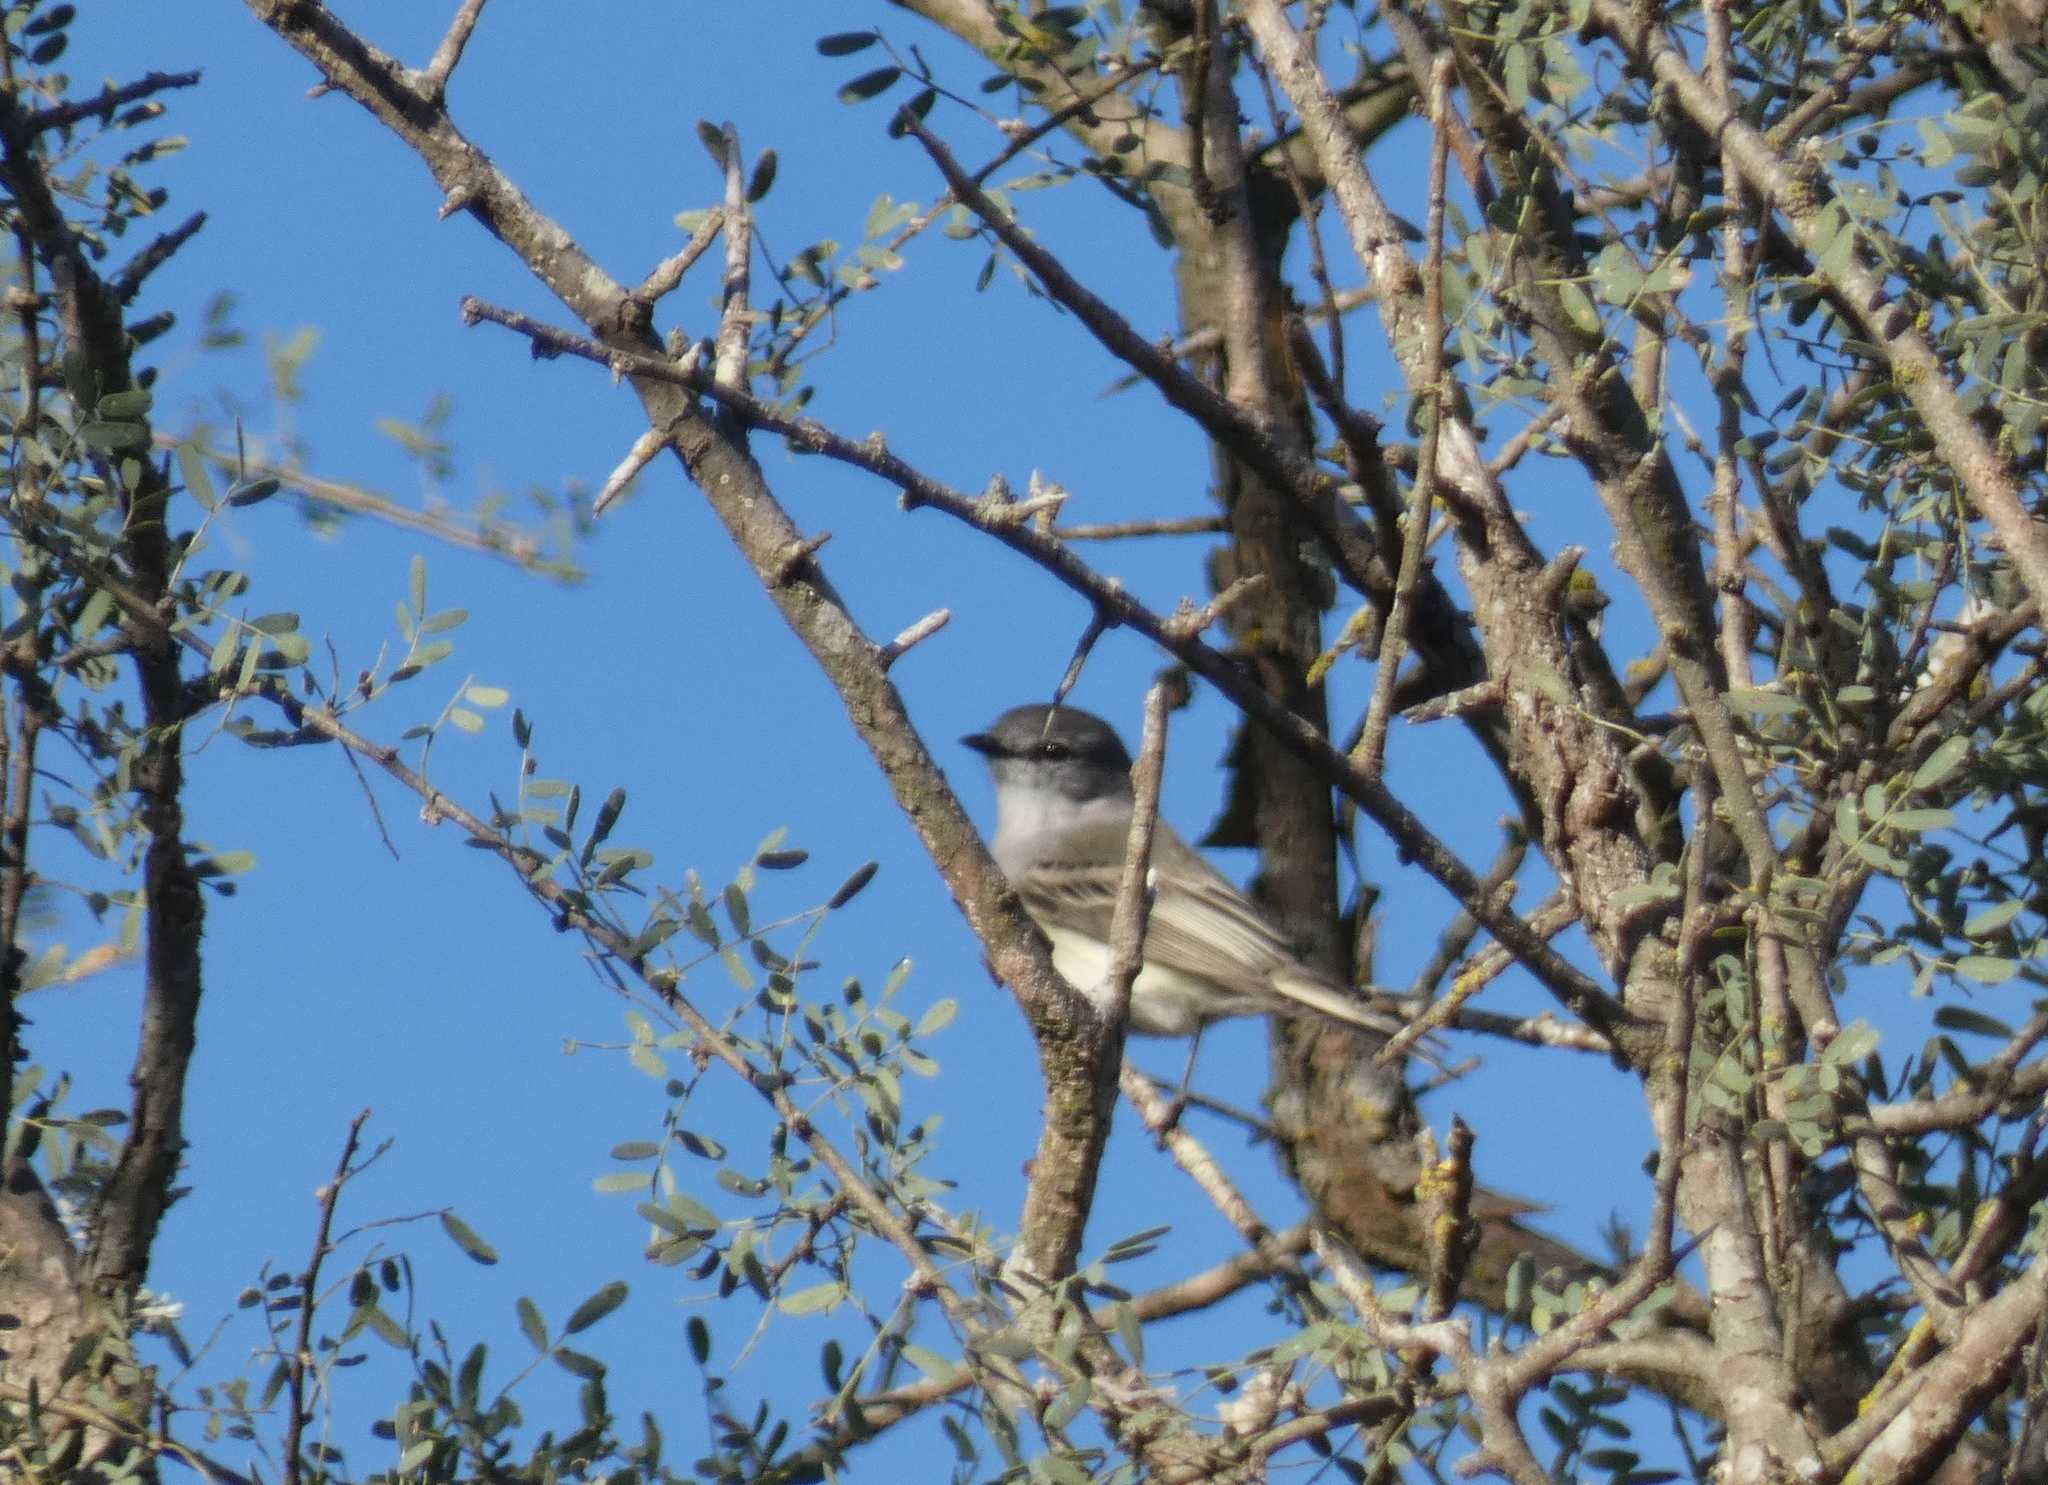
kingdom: Animalia
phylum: Chordata
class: Aves
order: Passeriformes
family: Tyrannidae
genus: Suiriri
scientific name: Suiriri suiriri
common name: Suiriri flycatcher
